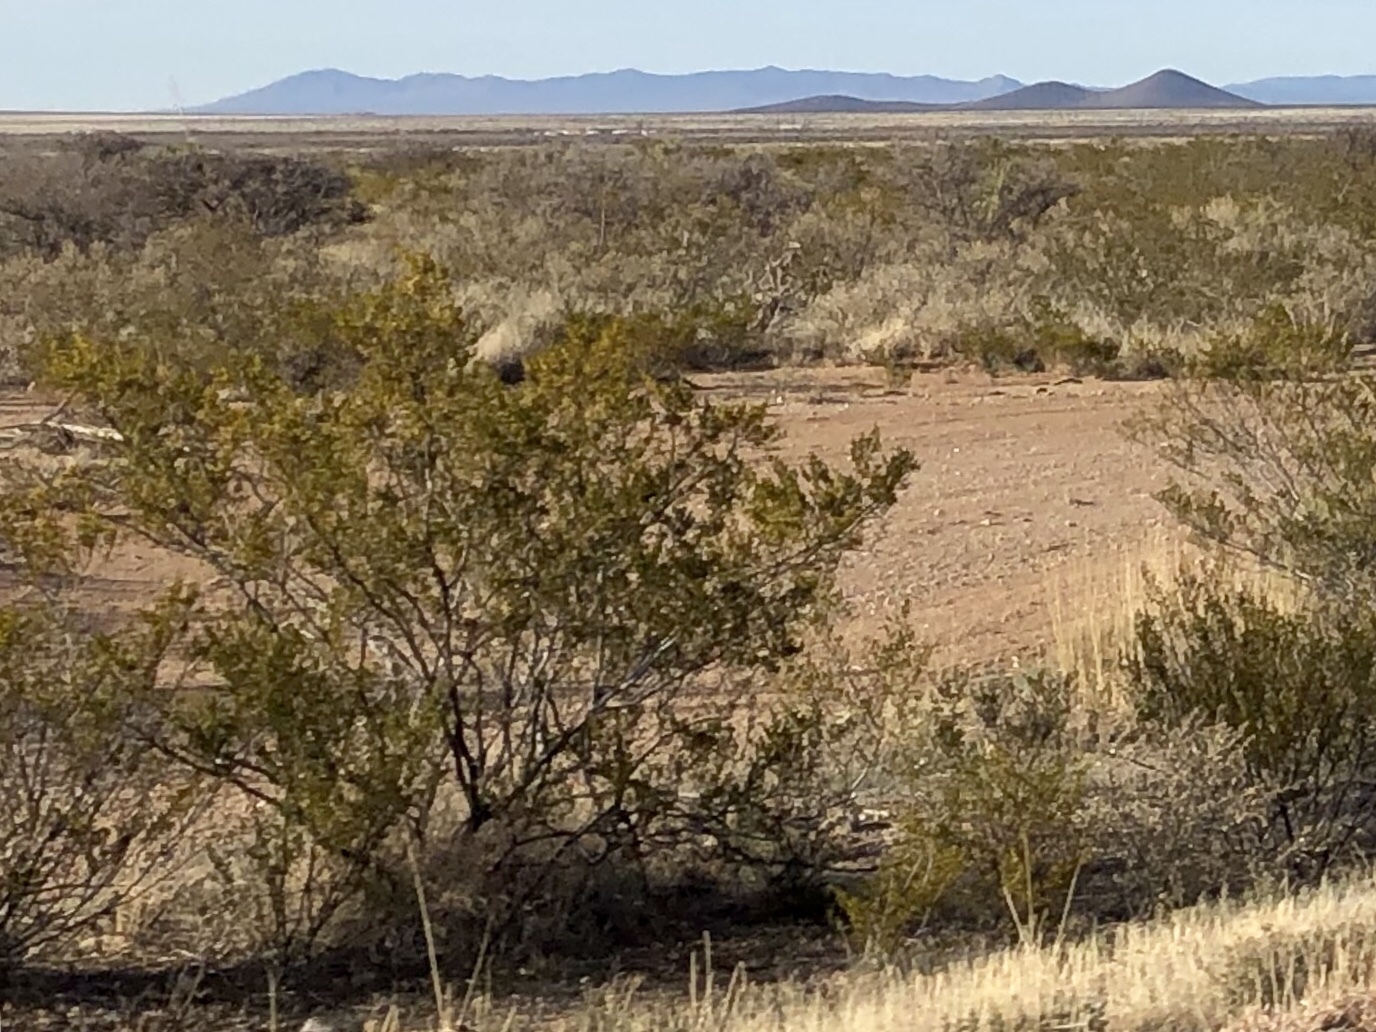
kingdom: Plantae
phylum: Tracheophyta
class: Magnoliopsida
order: Zygophyllales
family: Zygophyllaceae
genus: Larrea
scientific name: Larrea tridentata
